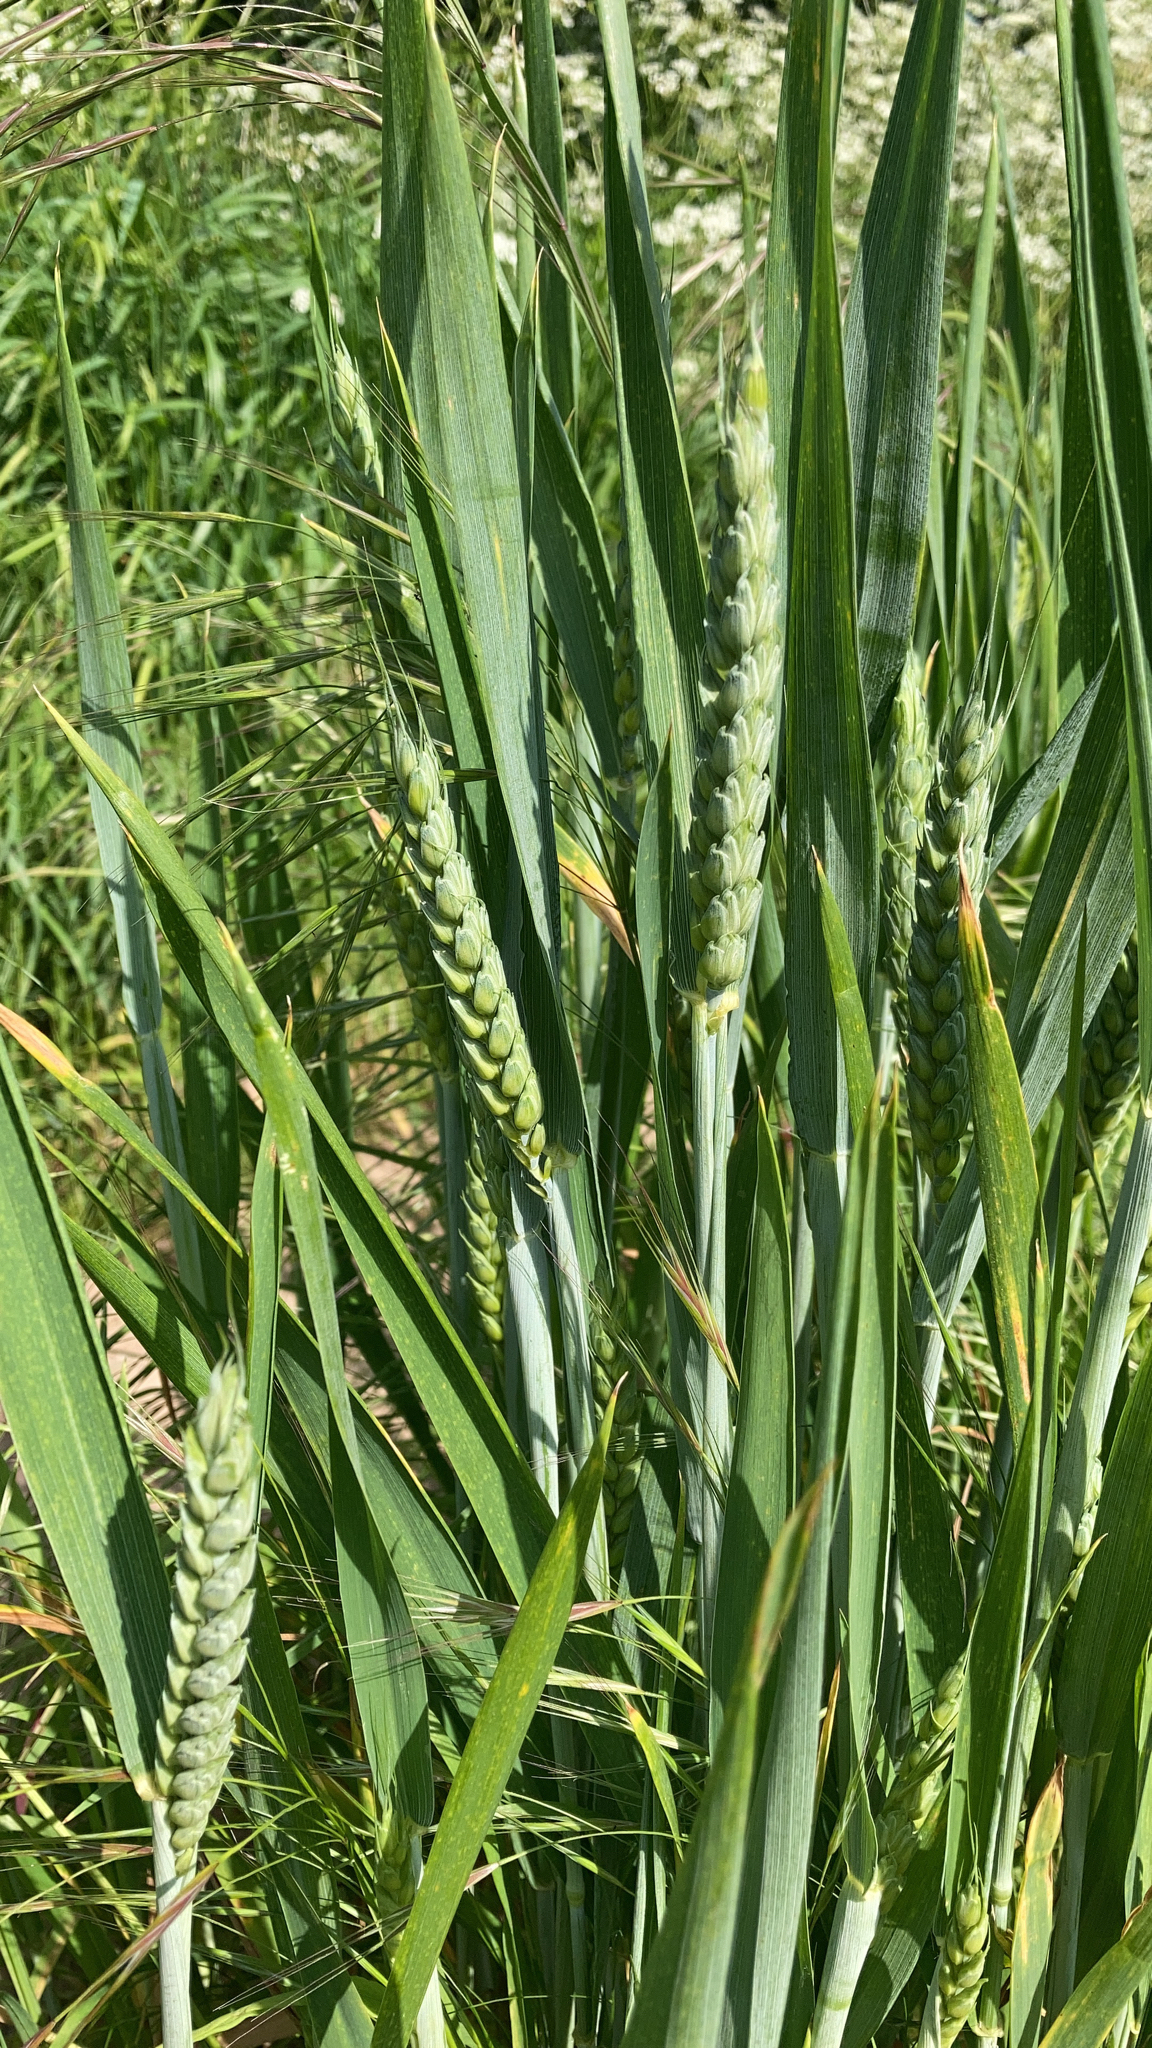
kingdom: Plantae
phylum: Tracheophyta
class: Liliopsida
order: Poales
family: Poaceae
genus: Triticum
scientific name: Triticum aestivum
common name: Common wheat
